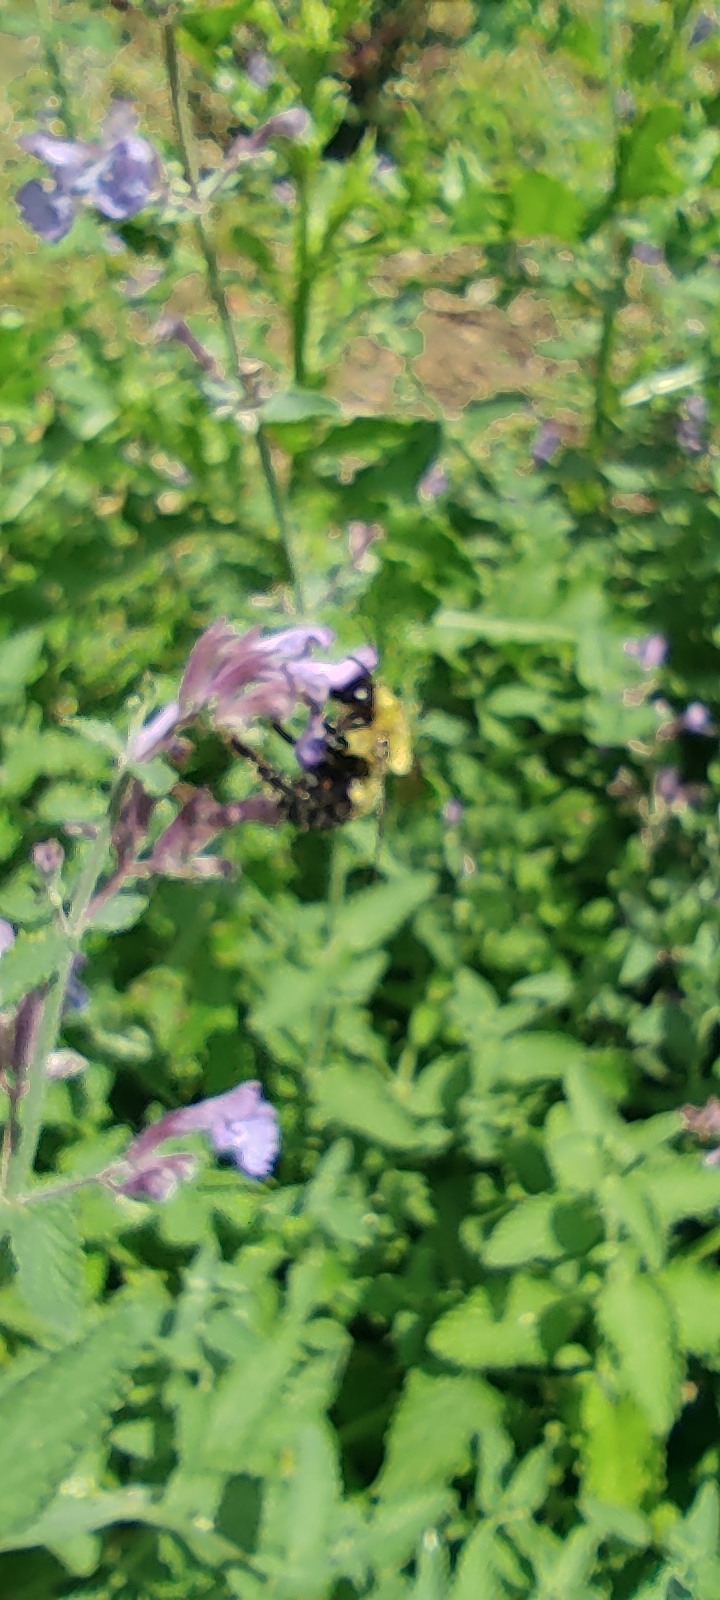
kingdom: Animalia
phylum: Arthropoda
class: Insecta
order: Hymenoptera
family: Apidae
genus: Bombus
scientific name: Bombus perplexus
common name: Confusing bumble bee
